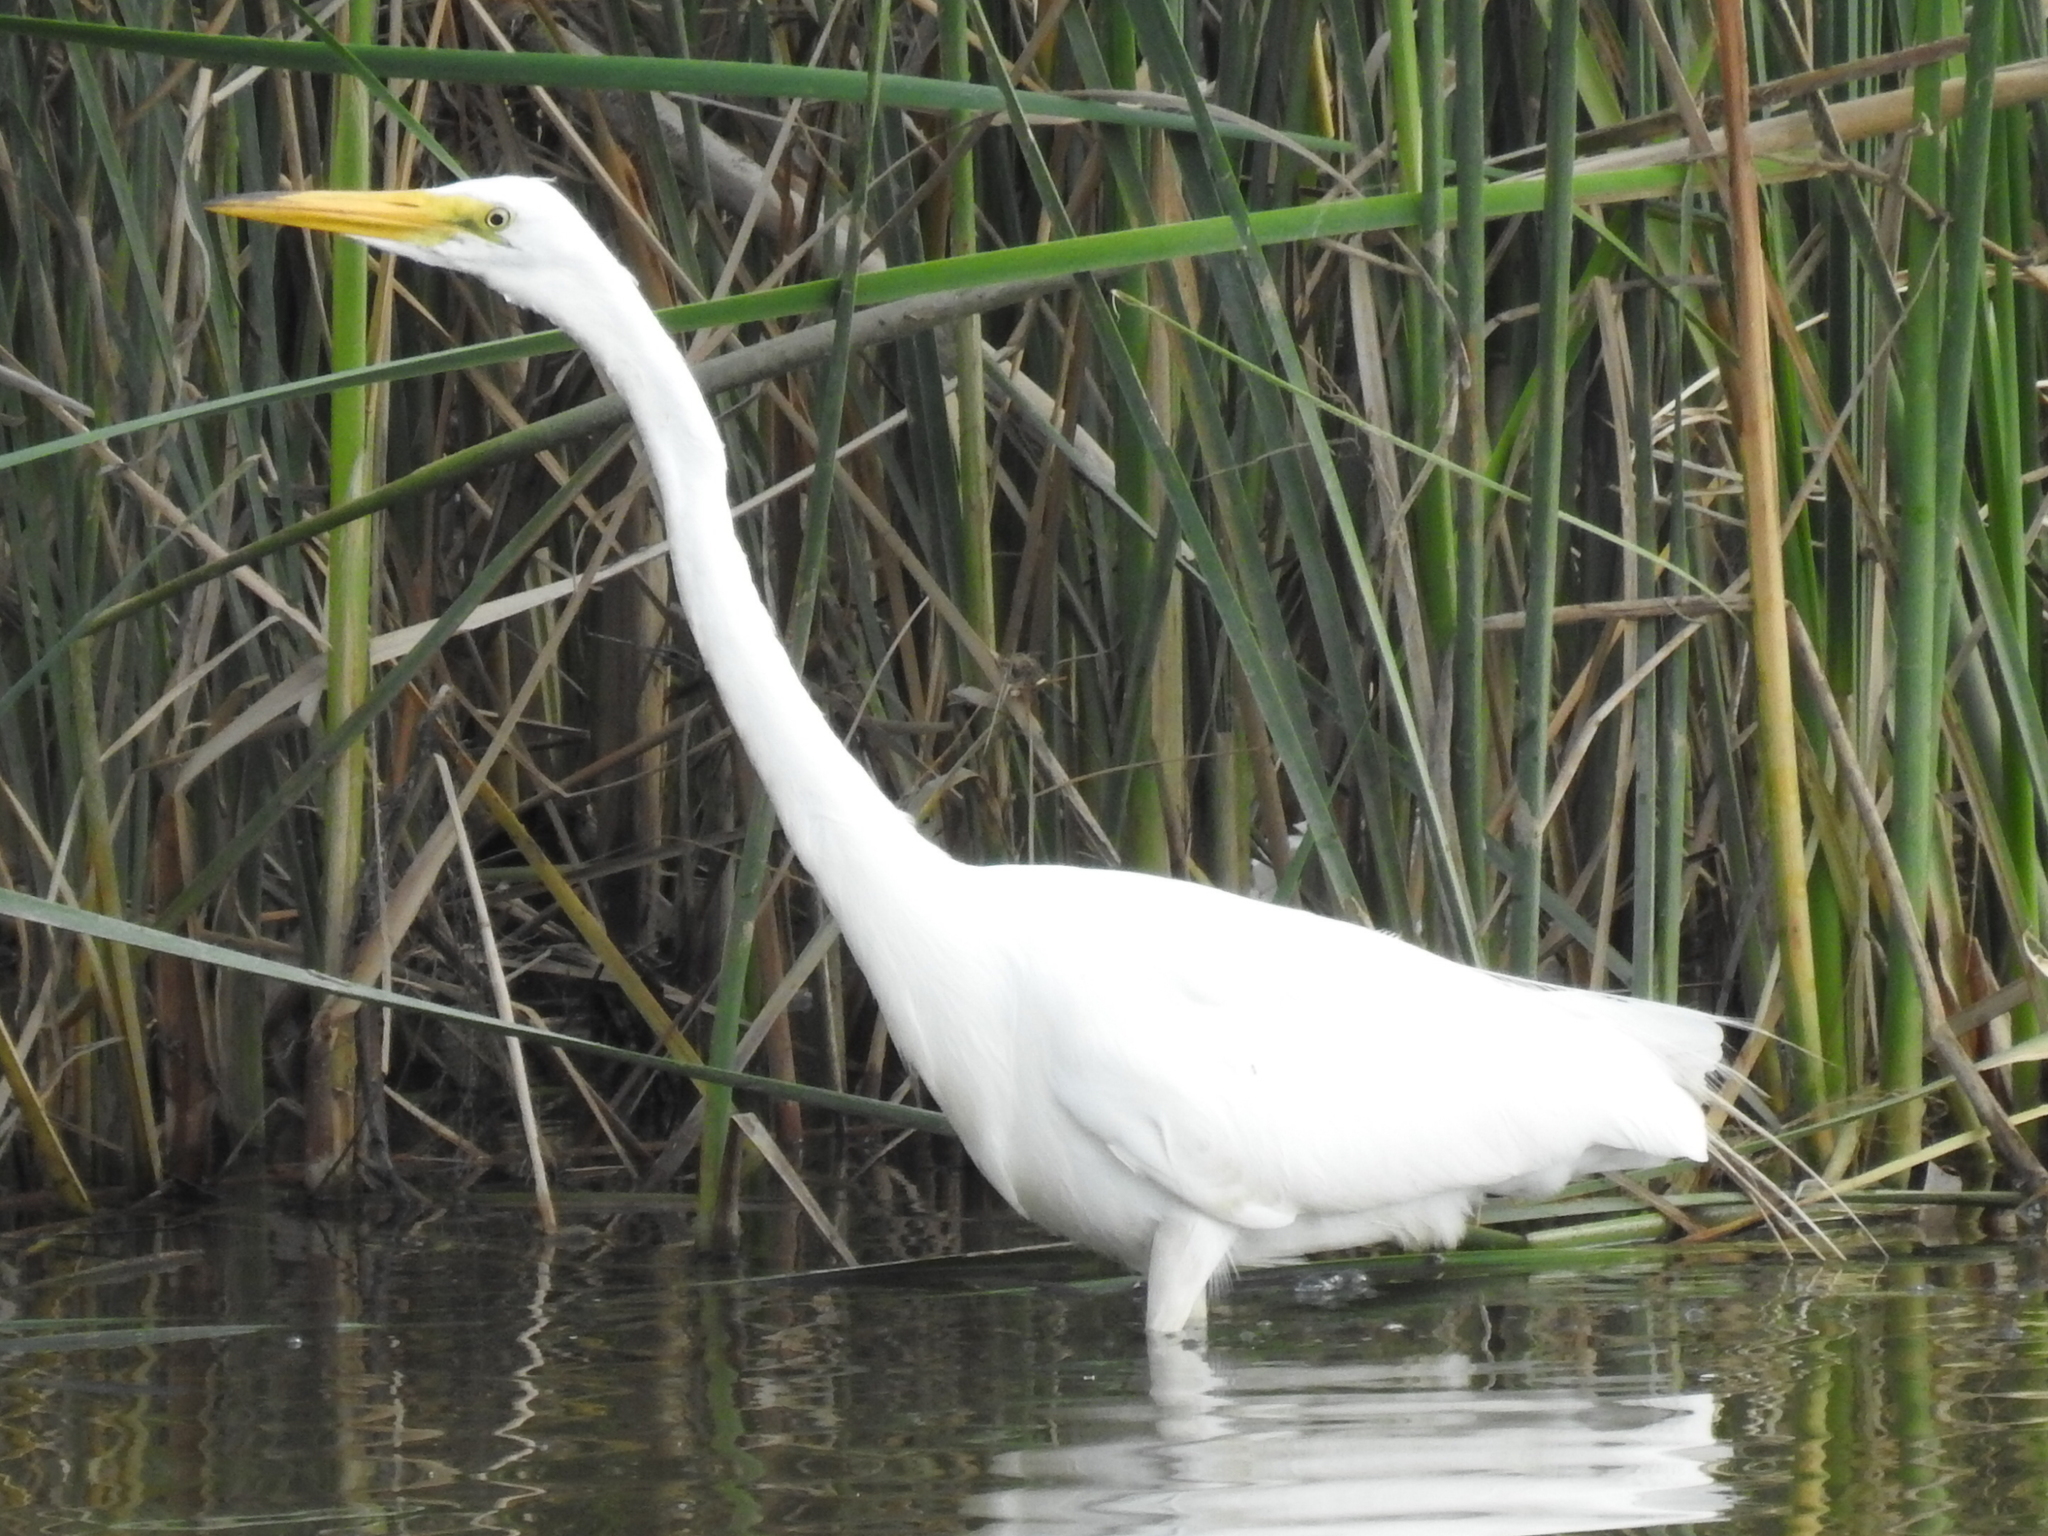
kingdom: Animalia
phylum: Chordata
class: Aves
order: Pelecaniformes
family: Ardeidae
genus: Ardea
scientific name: Ardea alba
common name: Great egret
